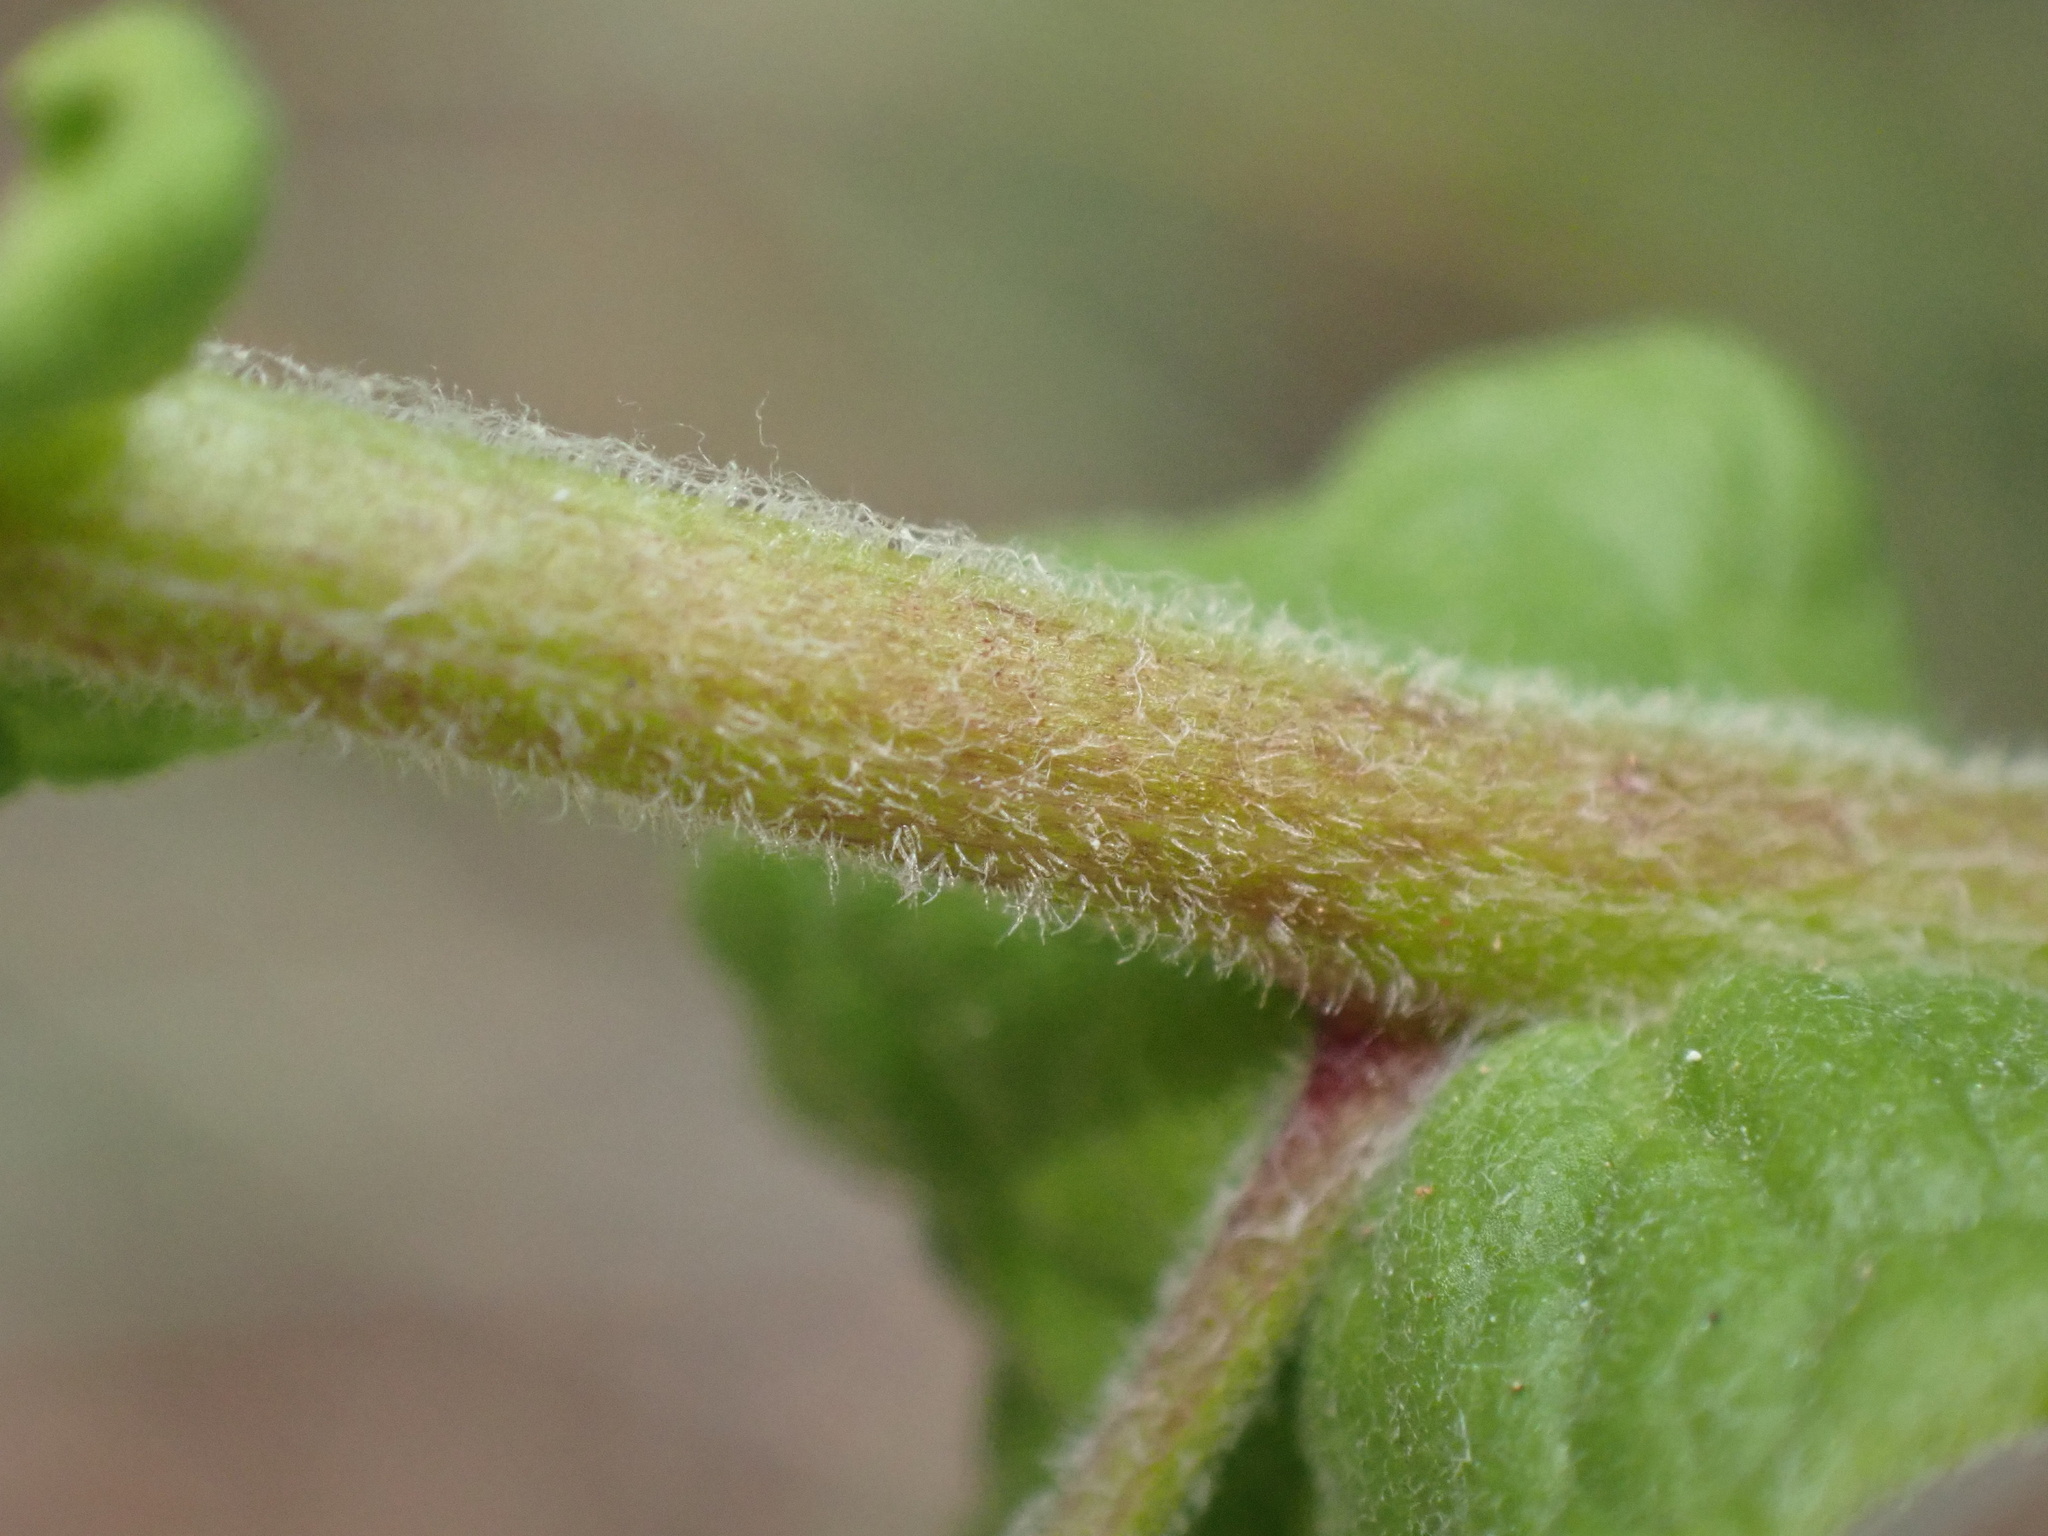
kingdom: Plantae
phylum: Tracheophyta
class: Magnoliopsida
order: Asterales
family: Asteraceae
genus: Pulicaria
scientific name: Pulicaria dysenterica
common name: Common fleabane
